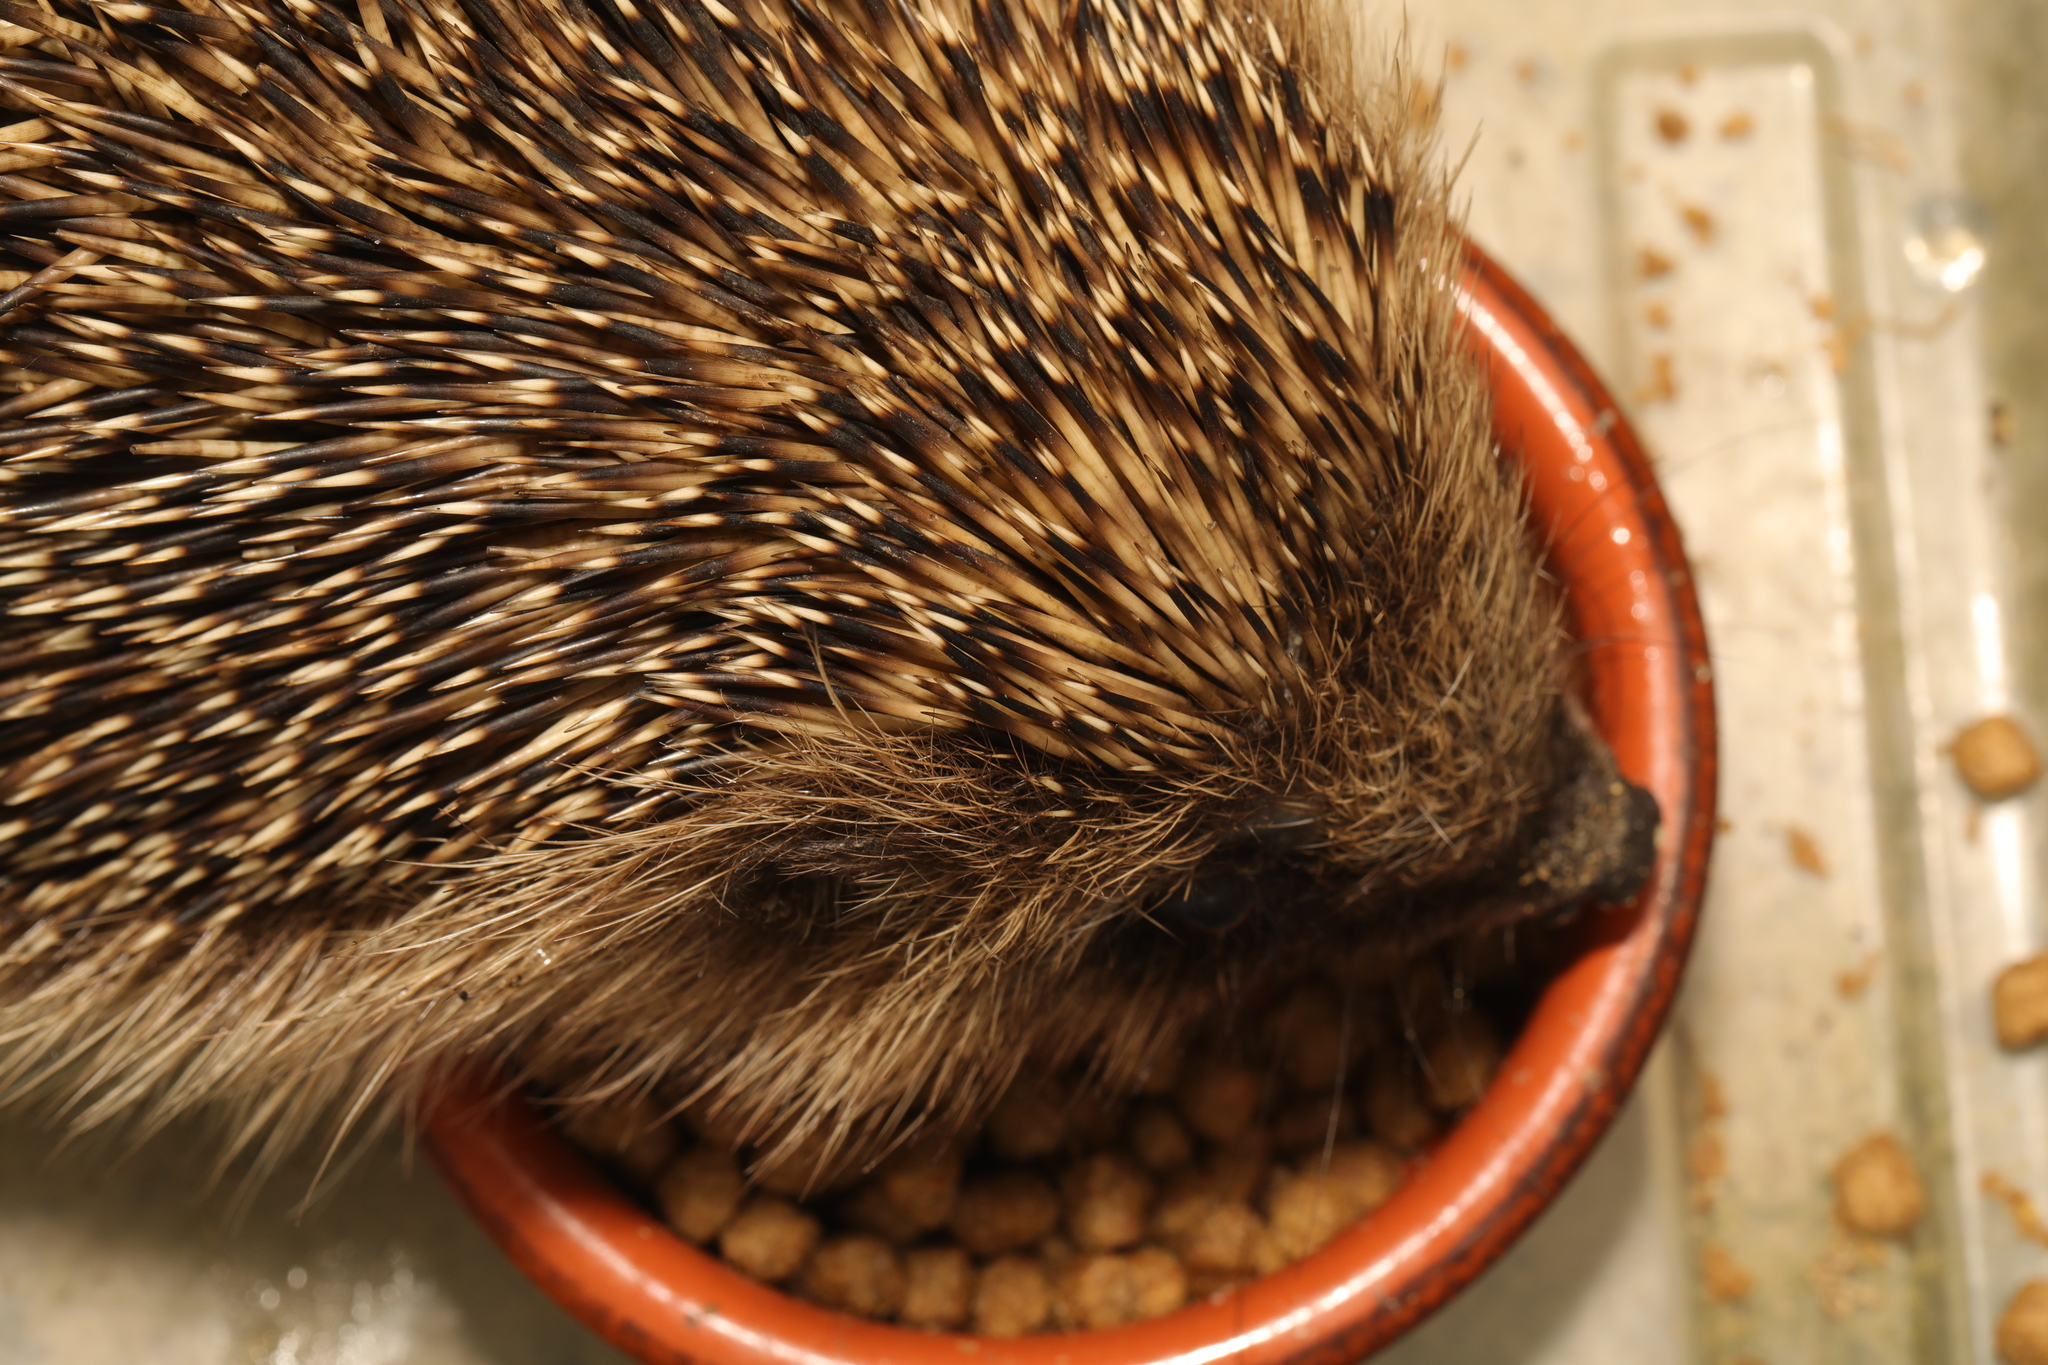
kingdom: Animalia
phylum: Chordata
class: Mammalia
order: Erinaceomorpha
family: Erinaceidae
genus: Erinaceus
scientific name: Erinaceus europaeus
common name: West european hedgehog
